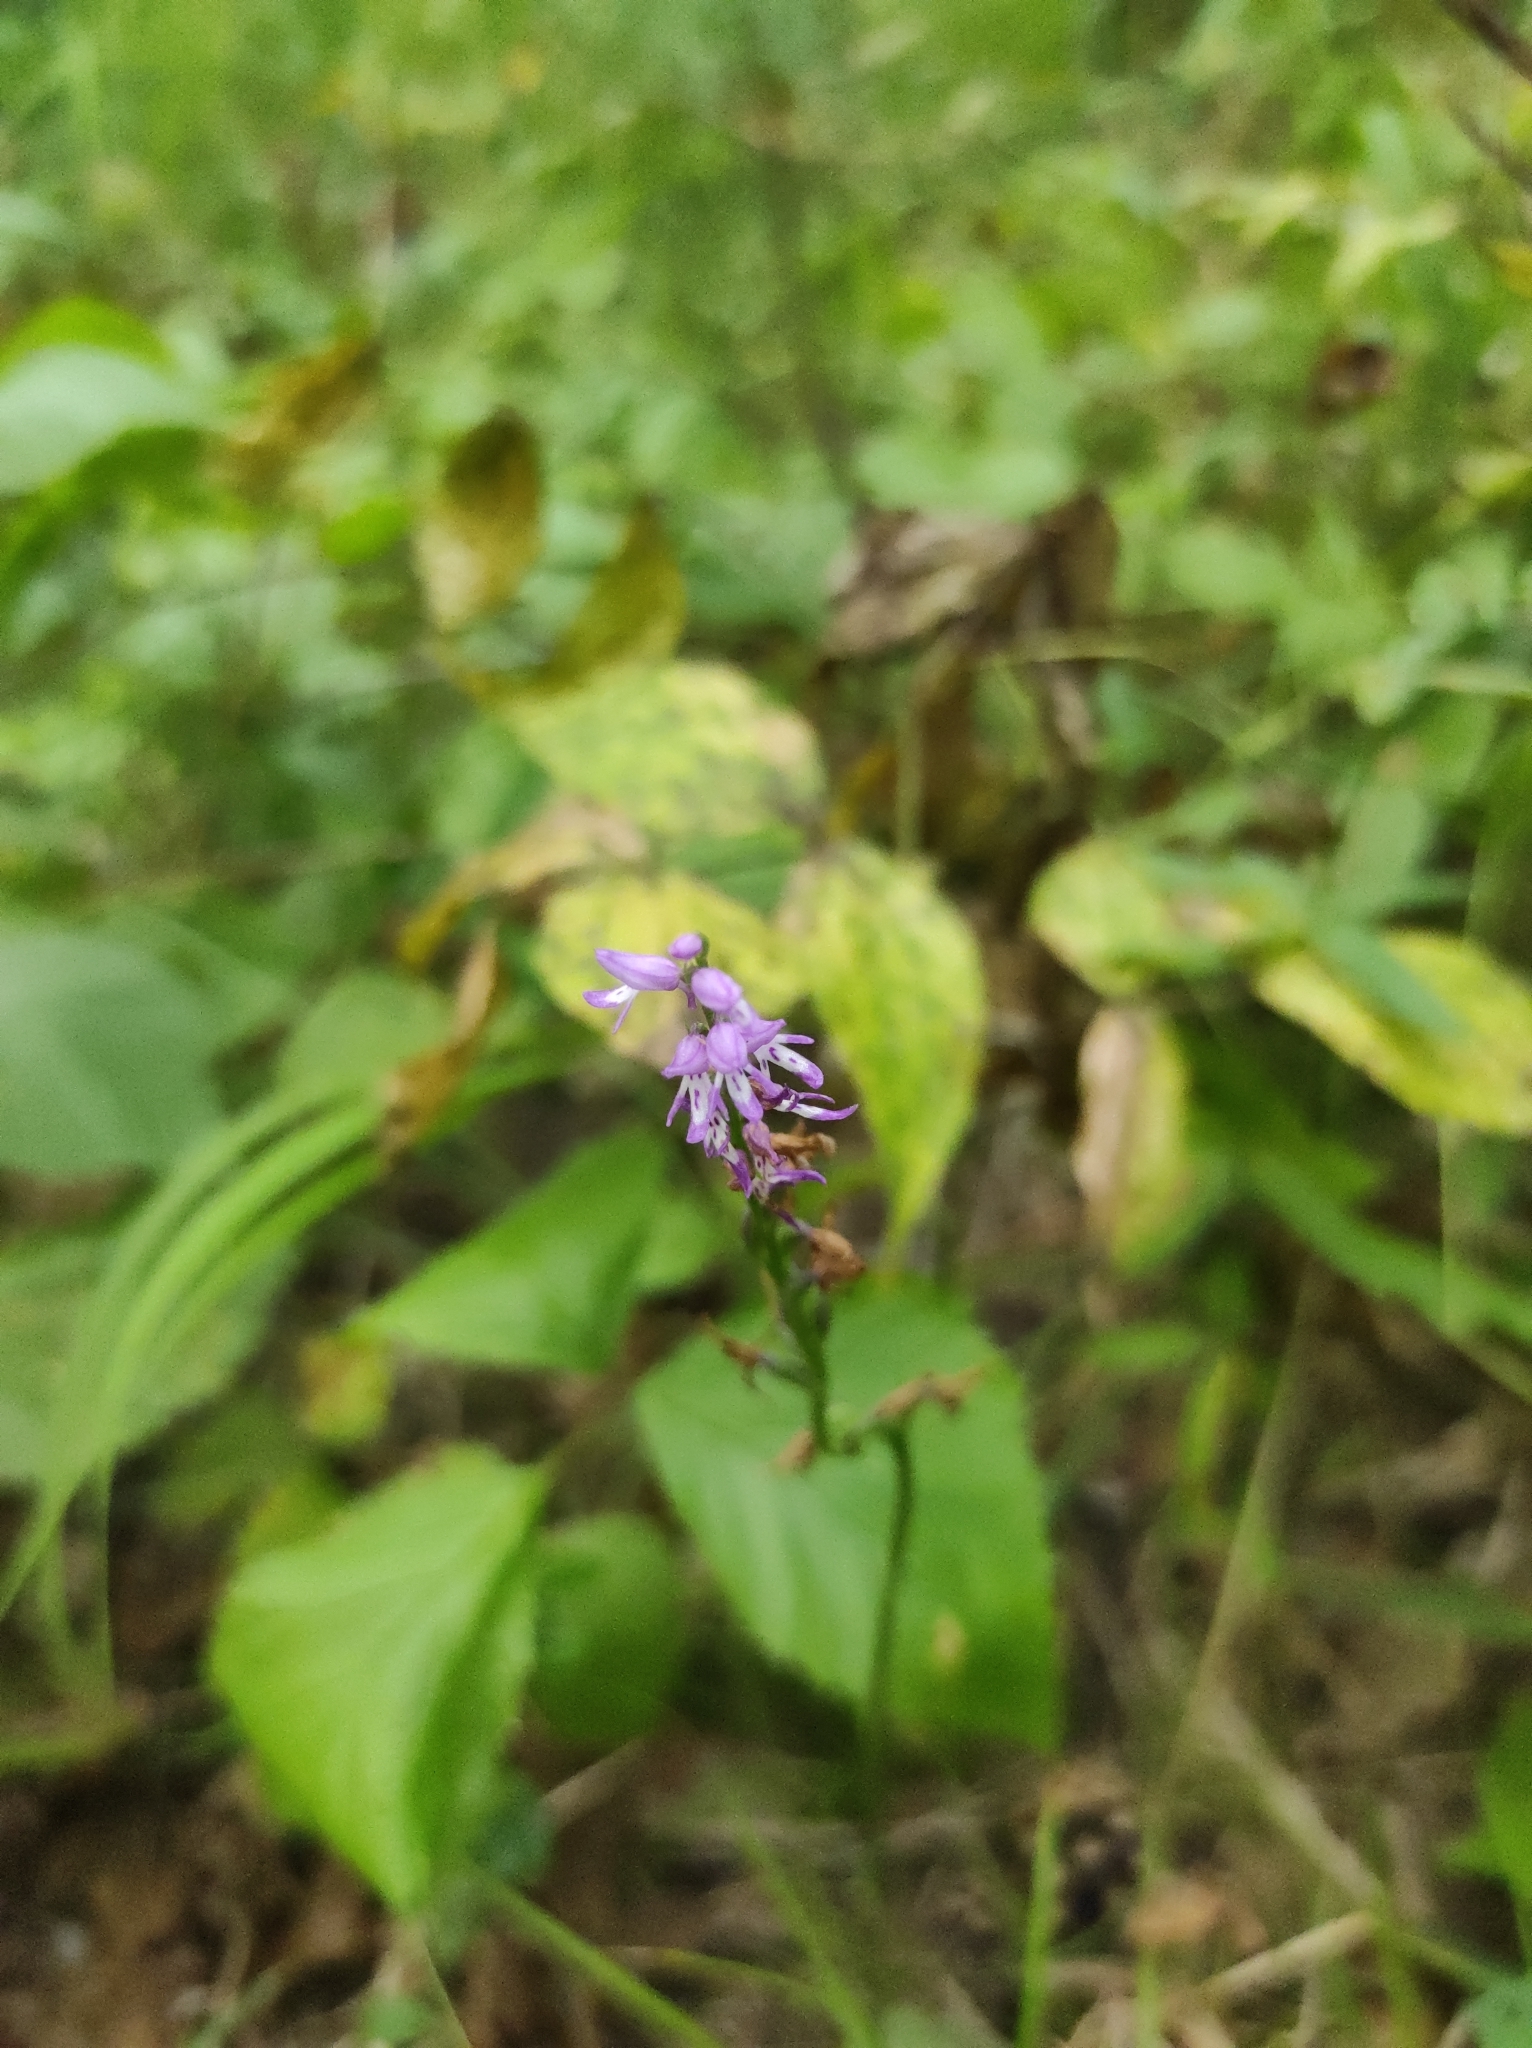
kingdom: Plantae
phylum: Tracheophyta
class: Liliopsida
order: Asparagales
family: Orchidaceae
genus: Hemipilia
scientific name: Hemipilia cucullata
